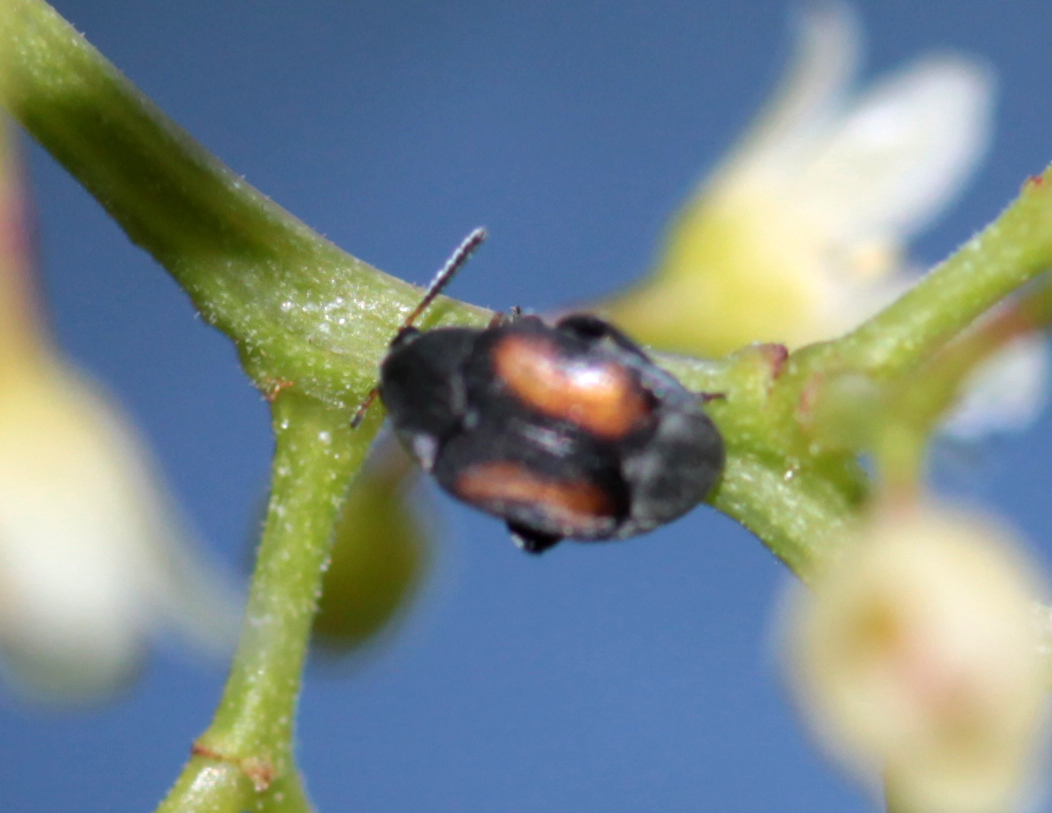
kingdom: Animalia
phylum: Arthropoda
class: Insecta
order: Coleoptera
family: Chrysomelidae
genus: Stator
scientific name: Stator limbatus
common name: Leaf beetle
